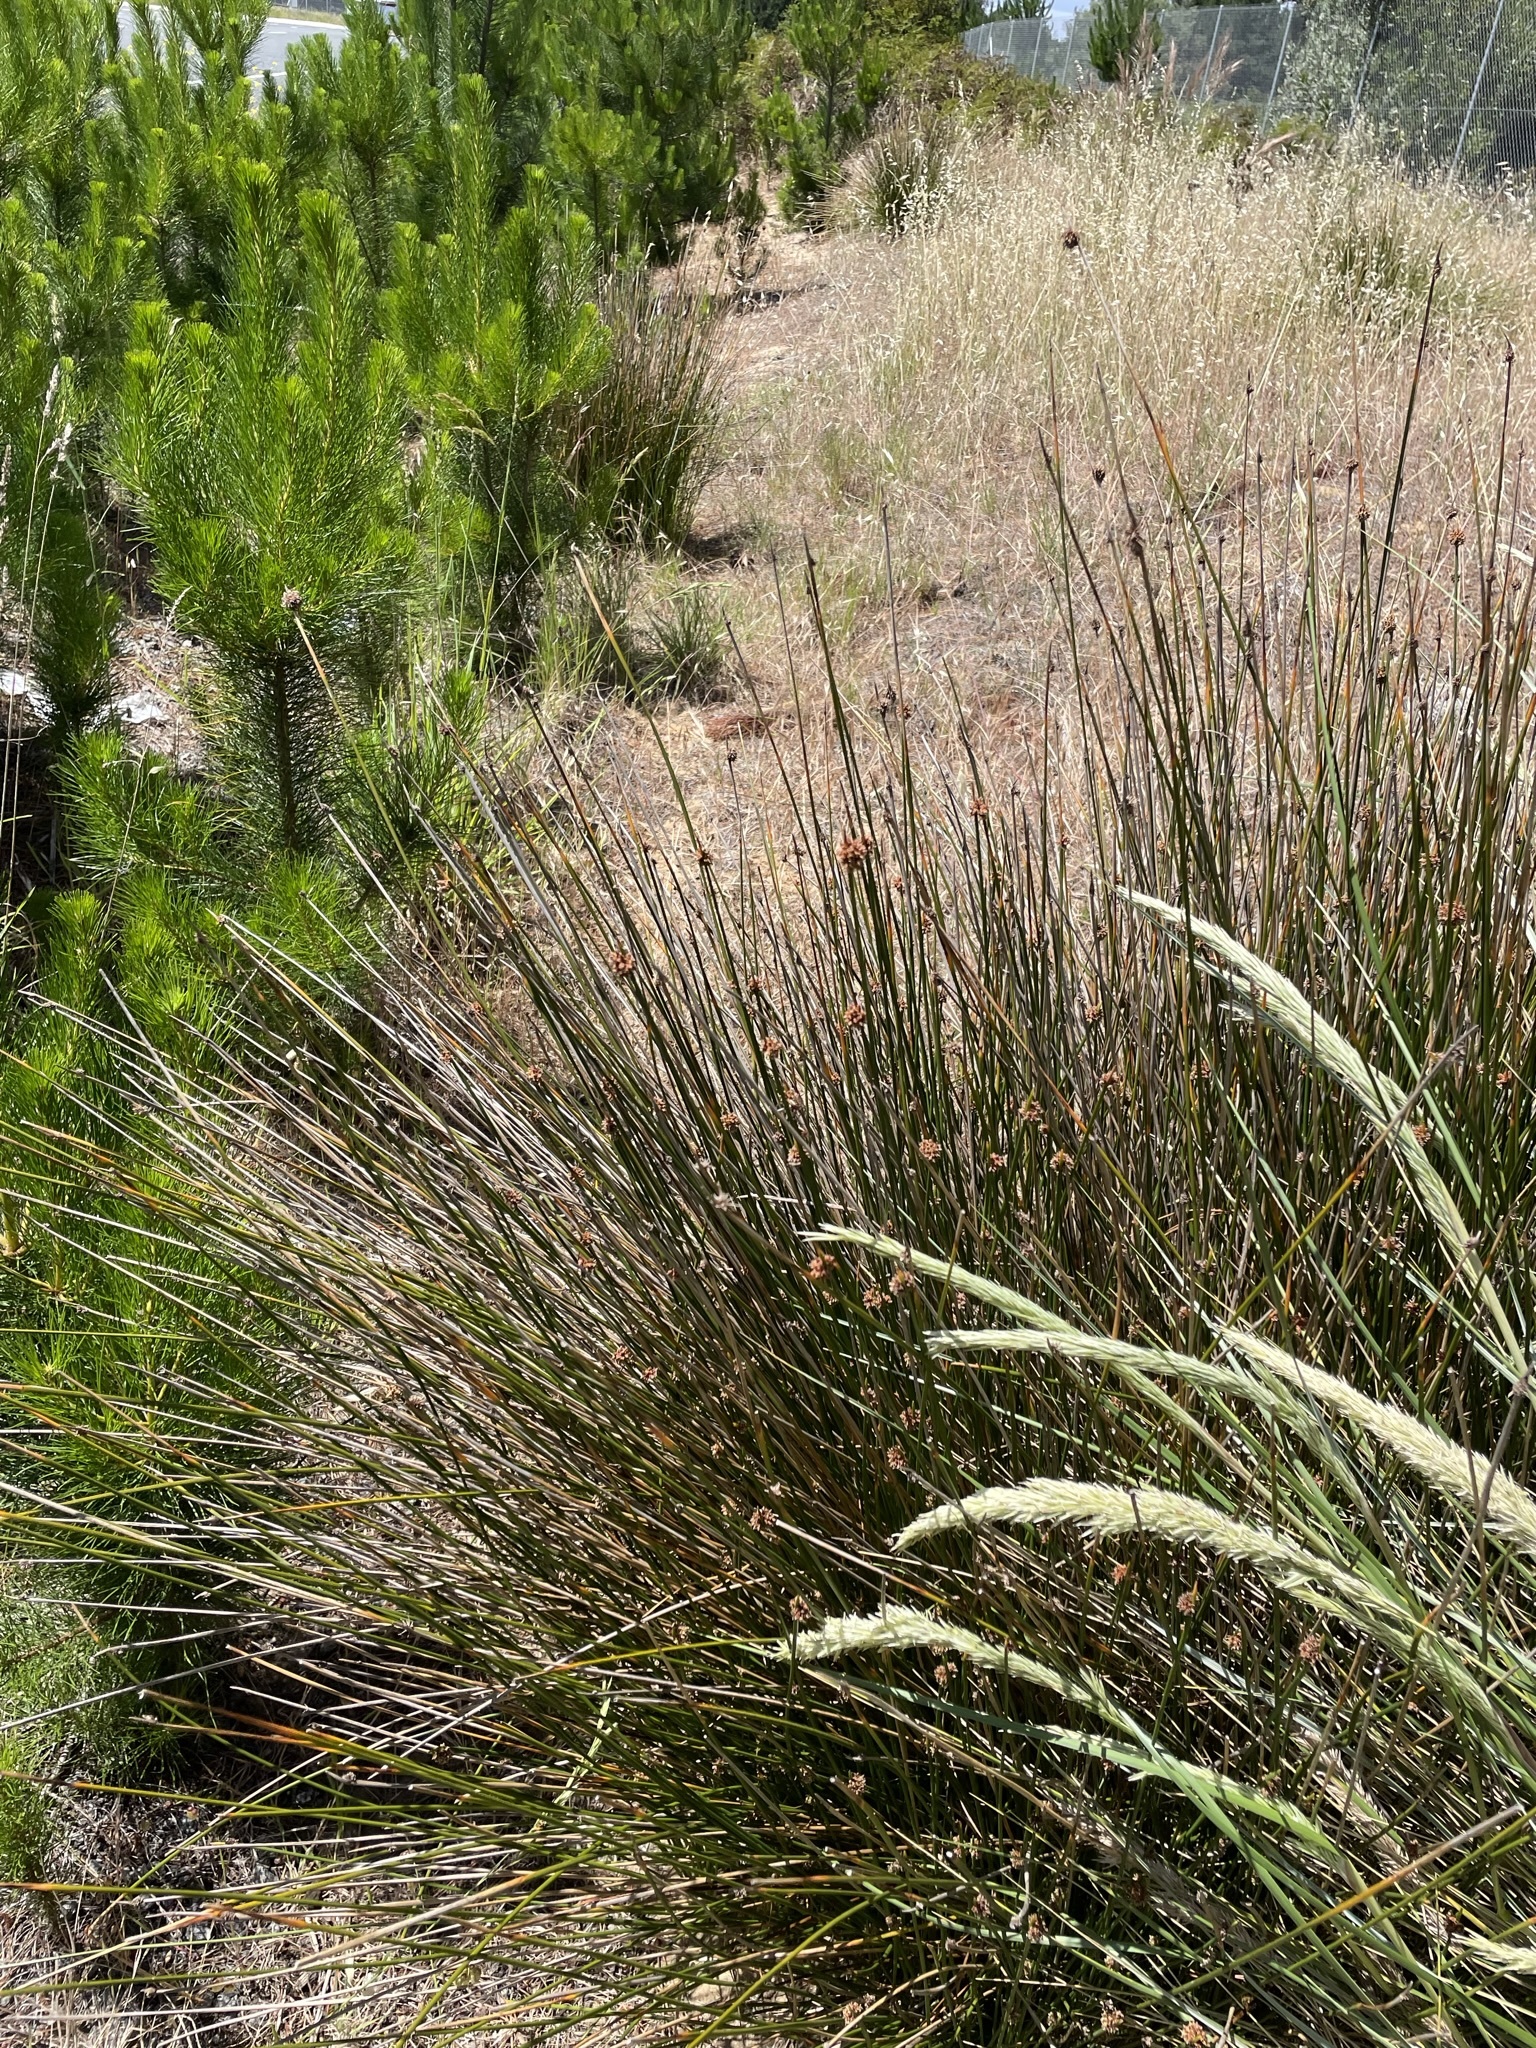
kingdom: Plantae
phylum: Tracheophyta
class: Liliopsida
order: Poales
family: Cyperaceae
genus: Ficinia
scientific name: Ficinia nodosa
